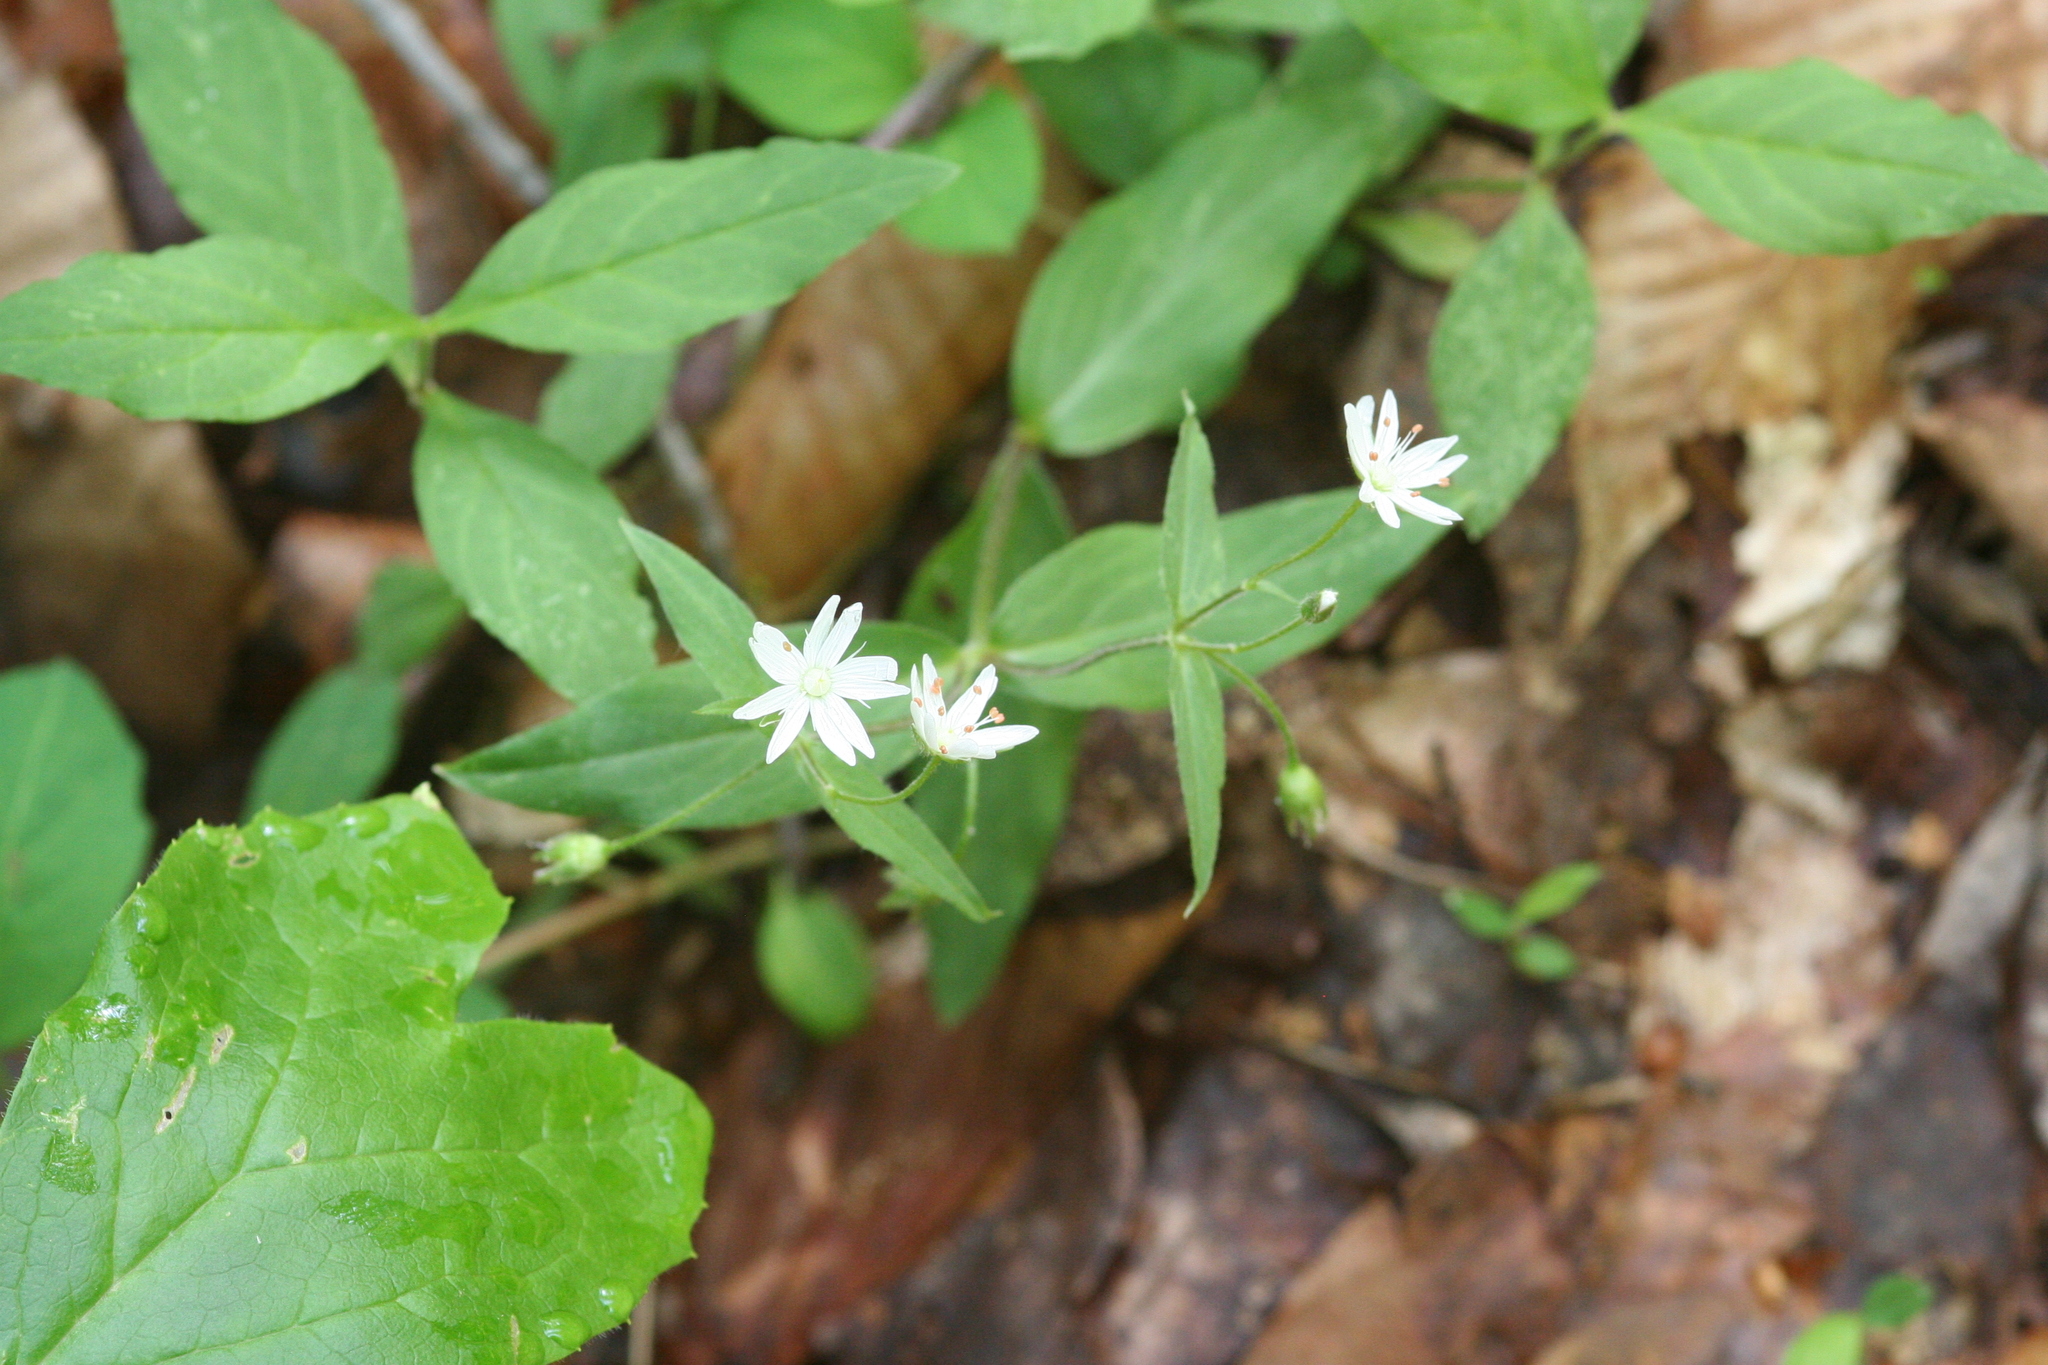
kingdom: Plantae
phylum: Tracheophyta
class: Magnoliopsida
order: Caryophyllales
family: Caryophyllaceae
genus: Stellaria
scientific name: Stellaria pubera
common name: Star chickweed
